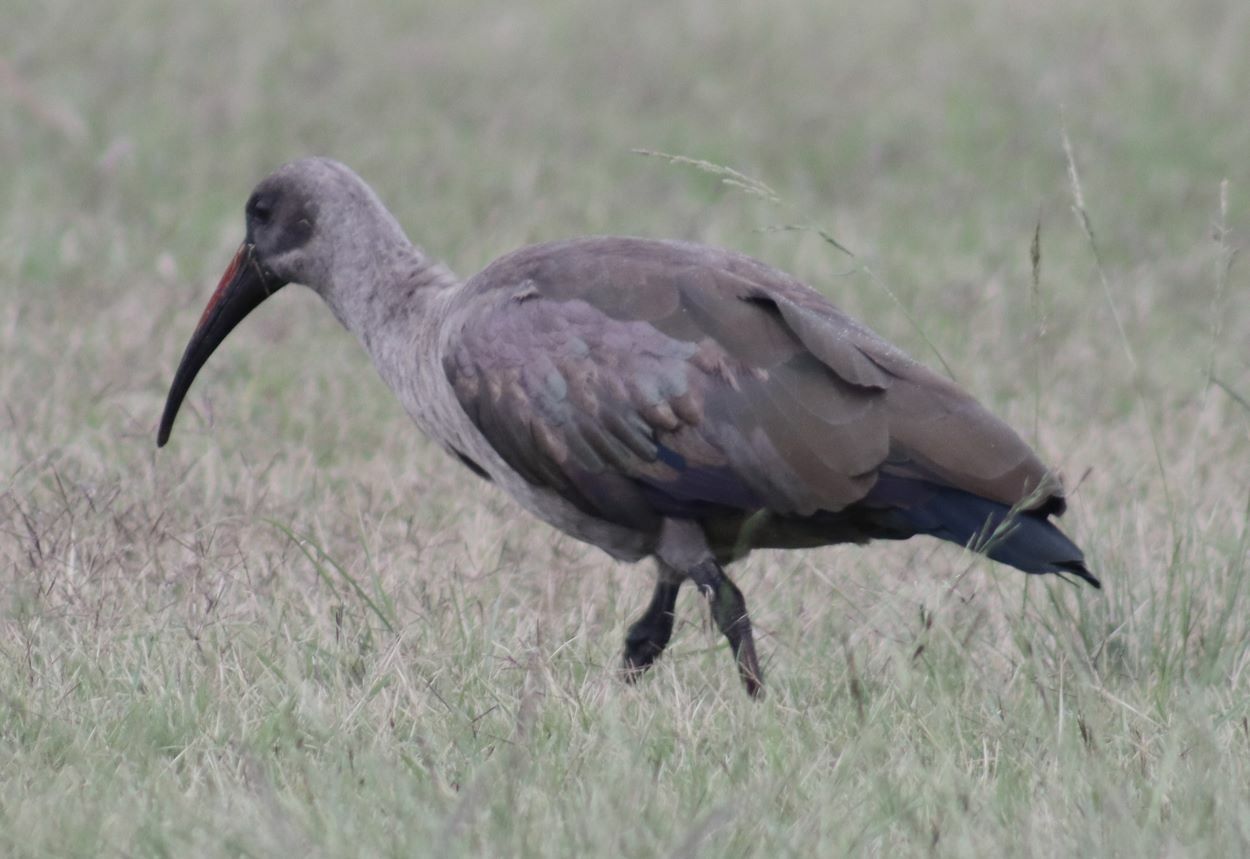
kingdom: Animalia
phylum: Chordata
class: Aves
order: Pelecaniformes
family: Threskiornithidae
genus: Bostrychia
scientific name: Bostrychia hagedash
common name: Hadada ibis
